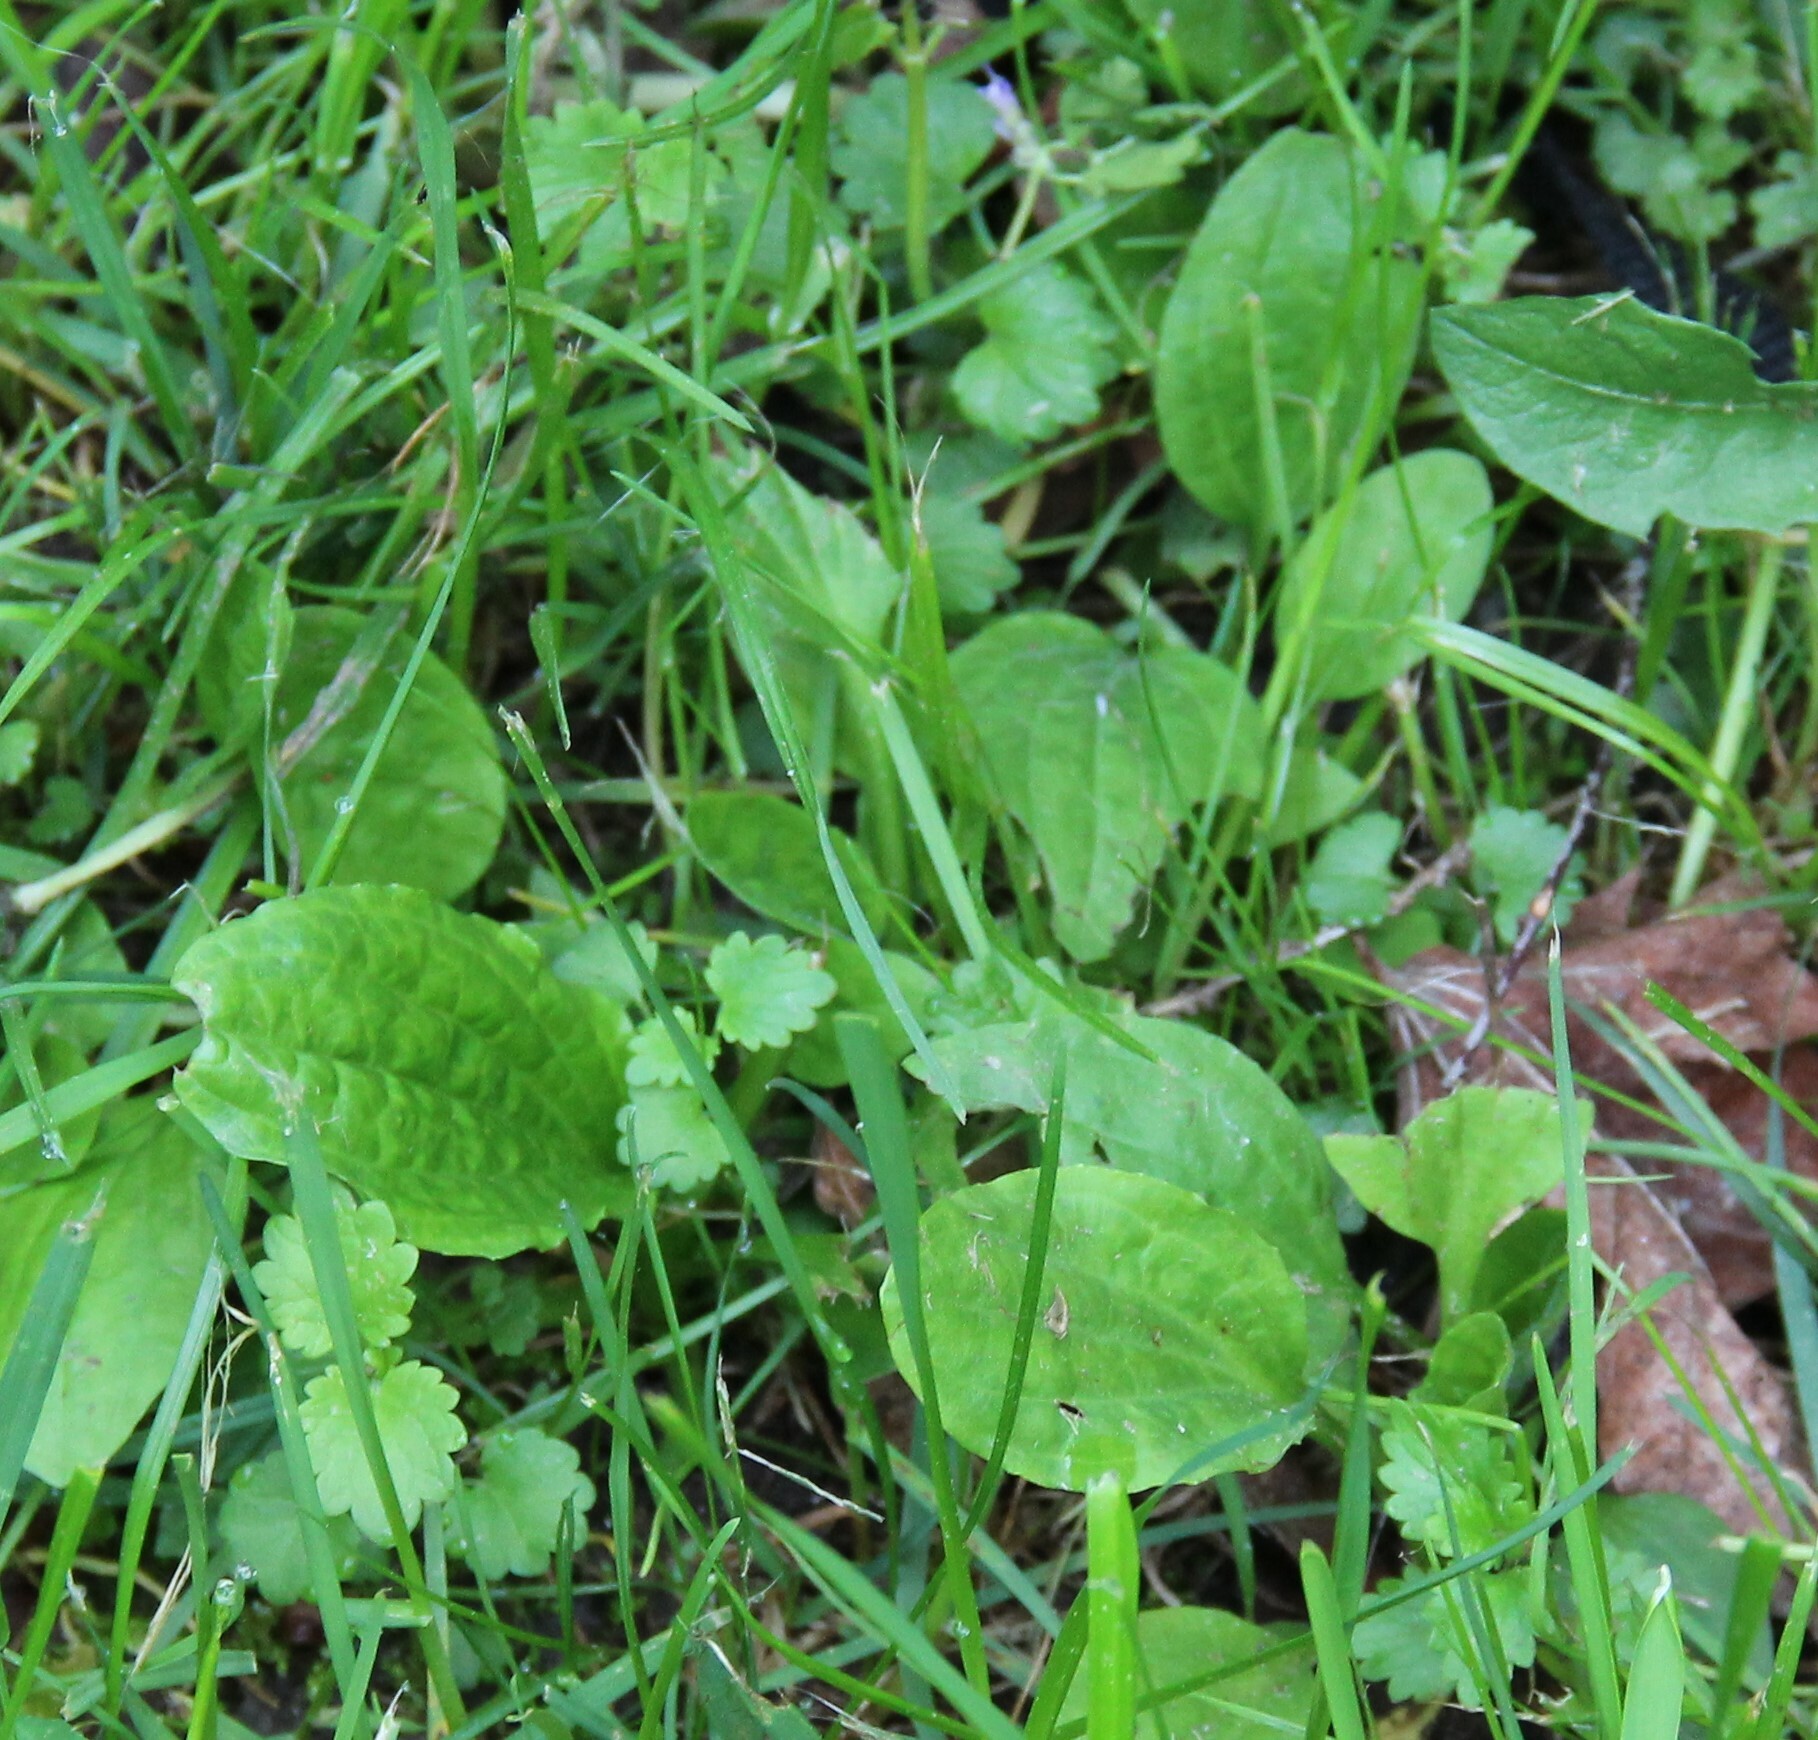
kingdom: Plantae
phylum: Tracheophyta
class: Magnoliopsida
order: Lamiales
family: Plantaginaceae
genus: Plantago
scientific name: Plantago major
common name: Common plantain
